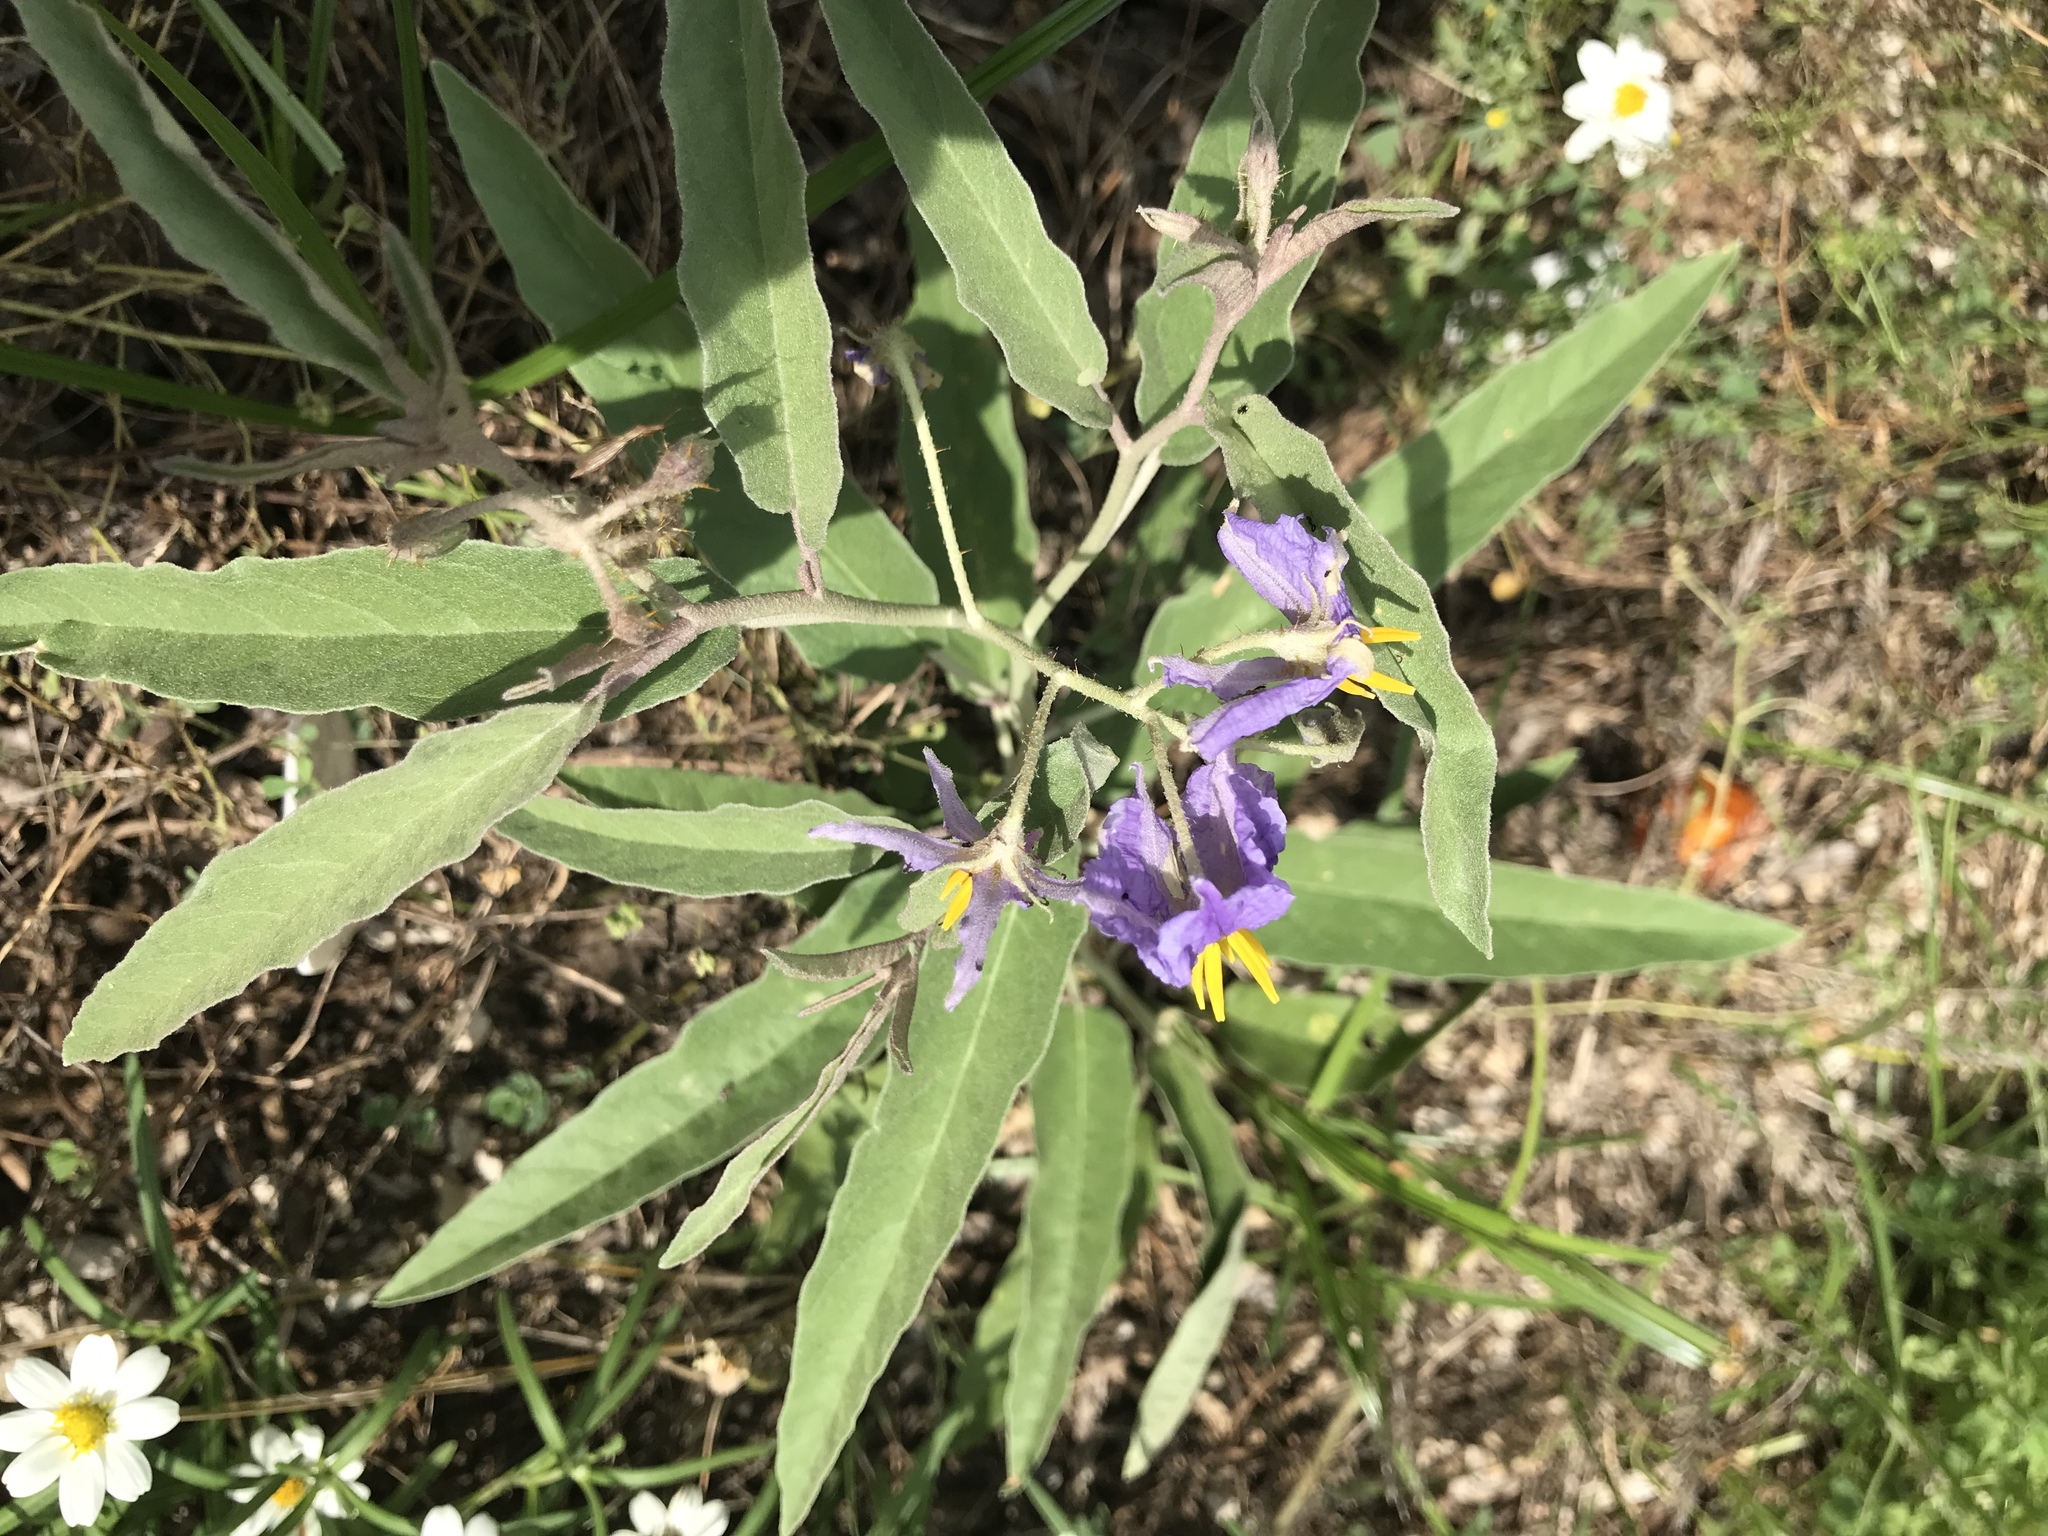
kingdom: Plantae
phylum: Tracheophyta
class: Magnoliopsida
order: Solanales
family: Solanaceae
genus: Solanum
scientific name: Solanum elaeagnifolium
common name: Silverleaf nightshade
